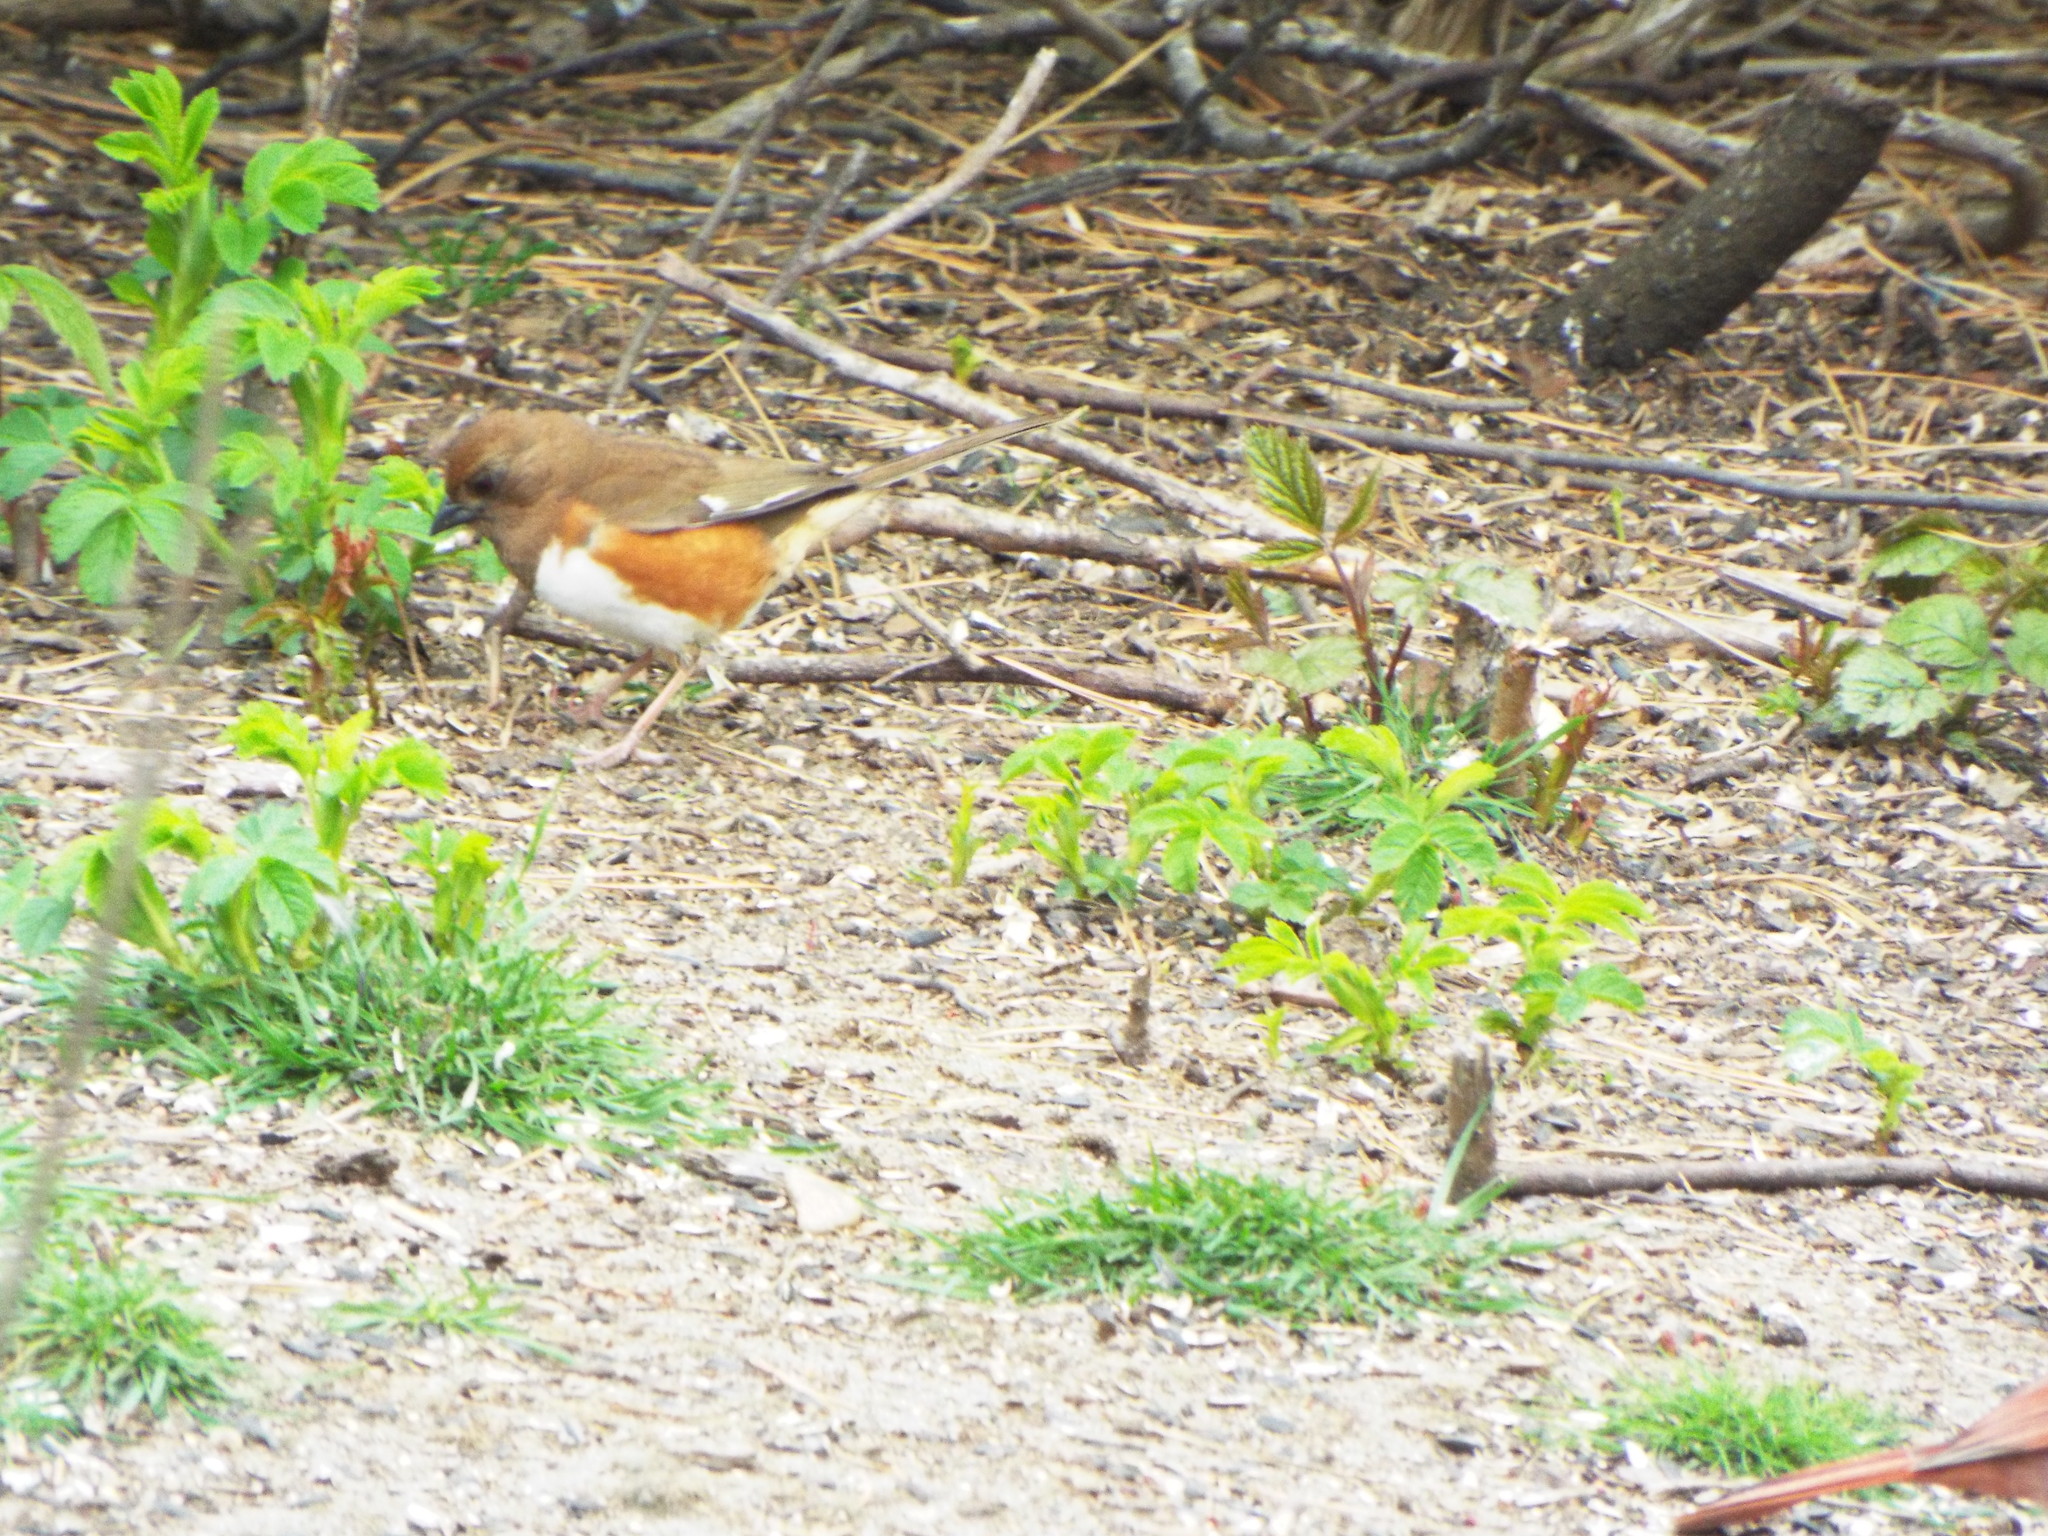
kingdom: Animalia
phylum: Chordata
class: Aves
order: Passeriformes
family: Passerellidae
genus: Pipilo
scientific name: Pipilo erythrophthalmus
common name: Eastern towhee
